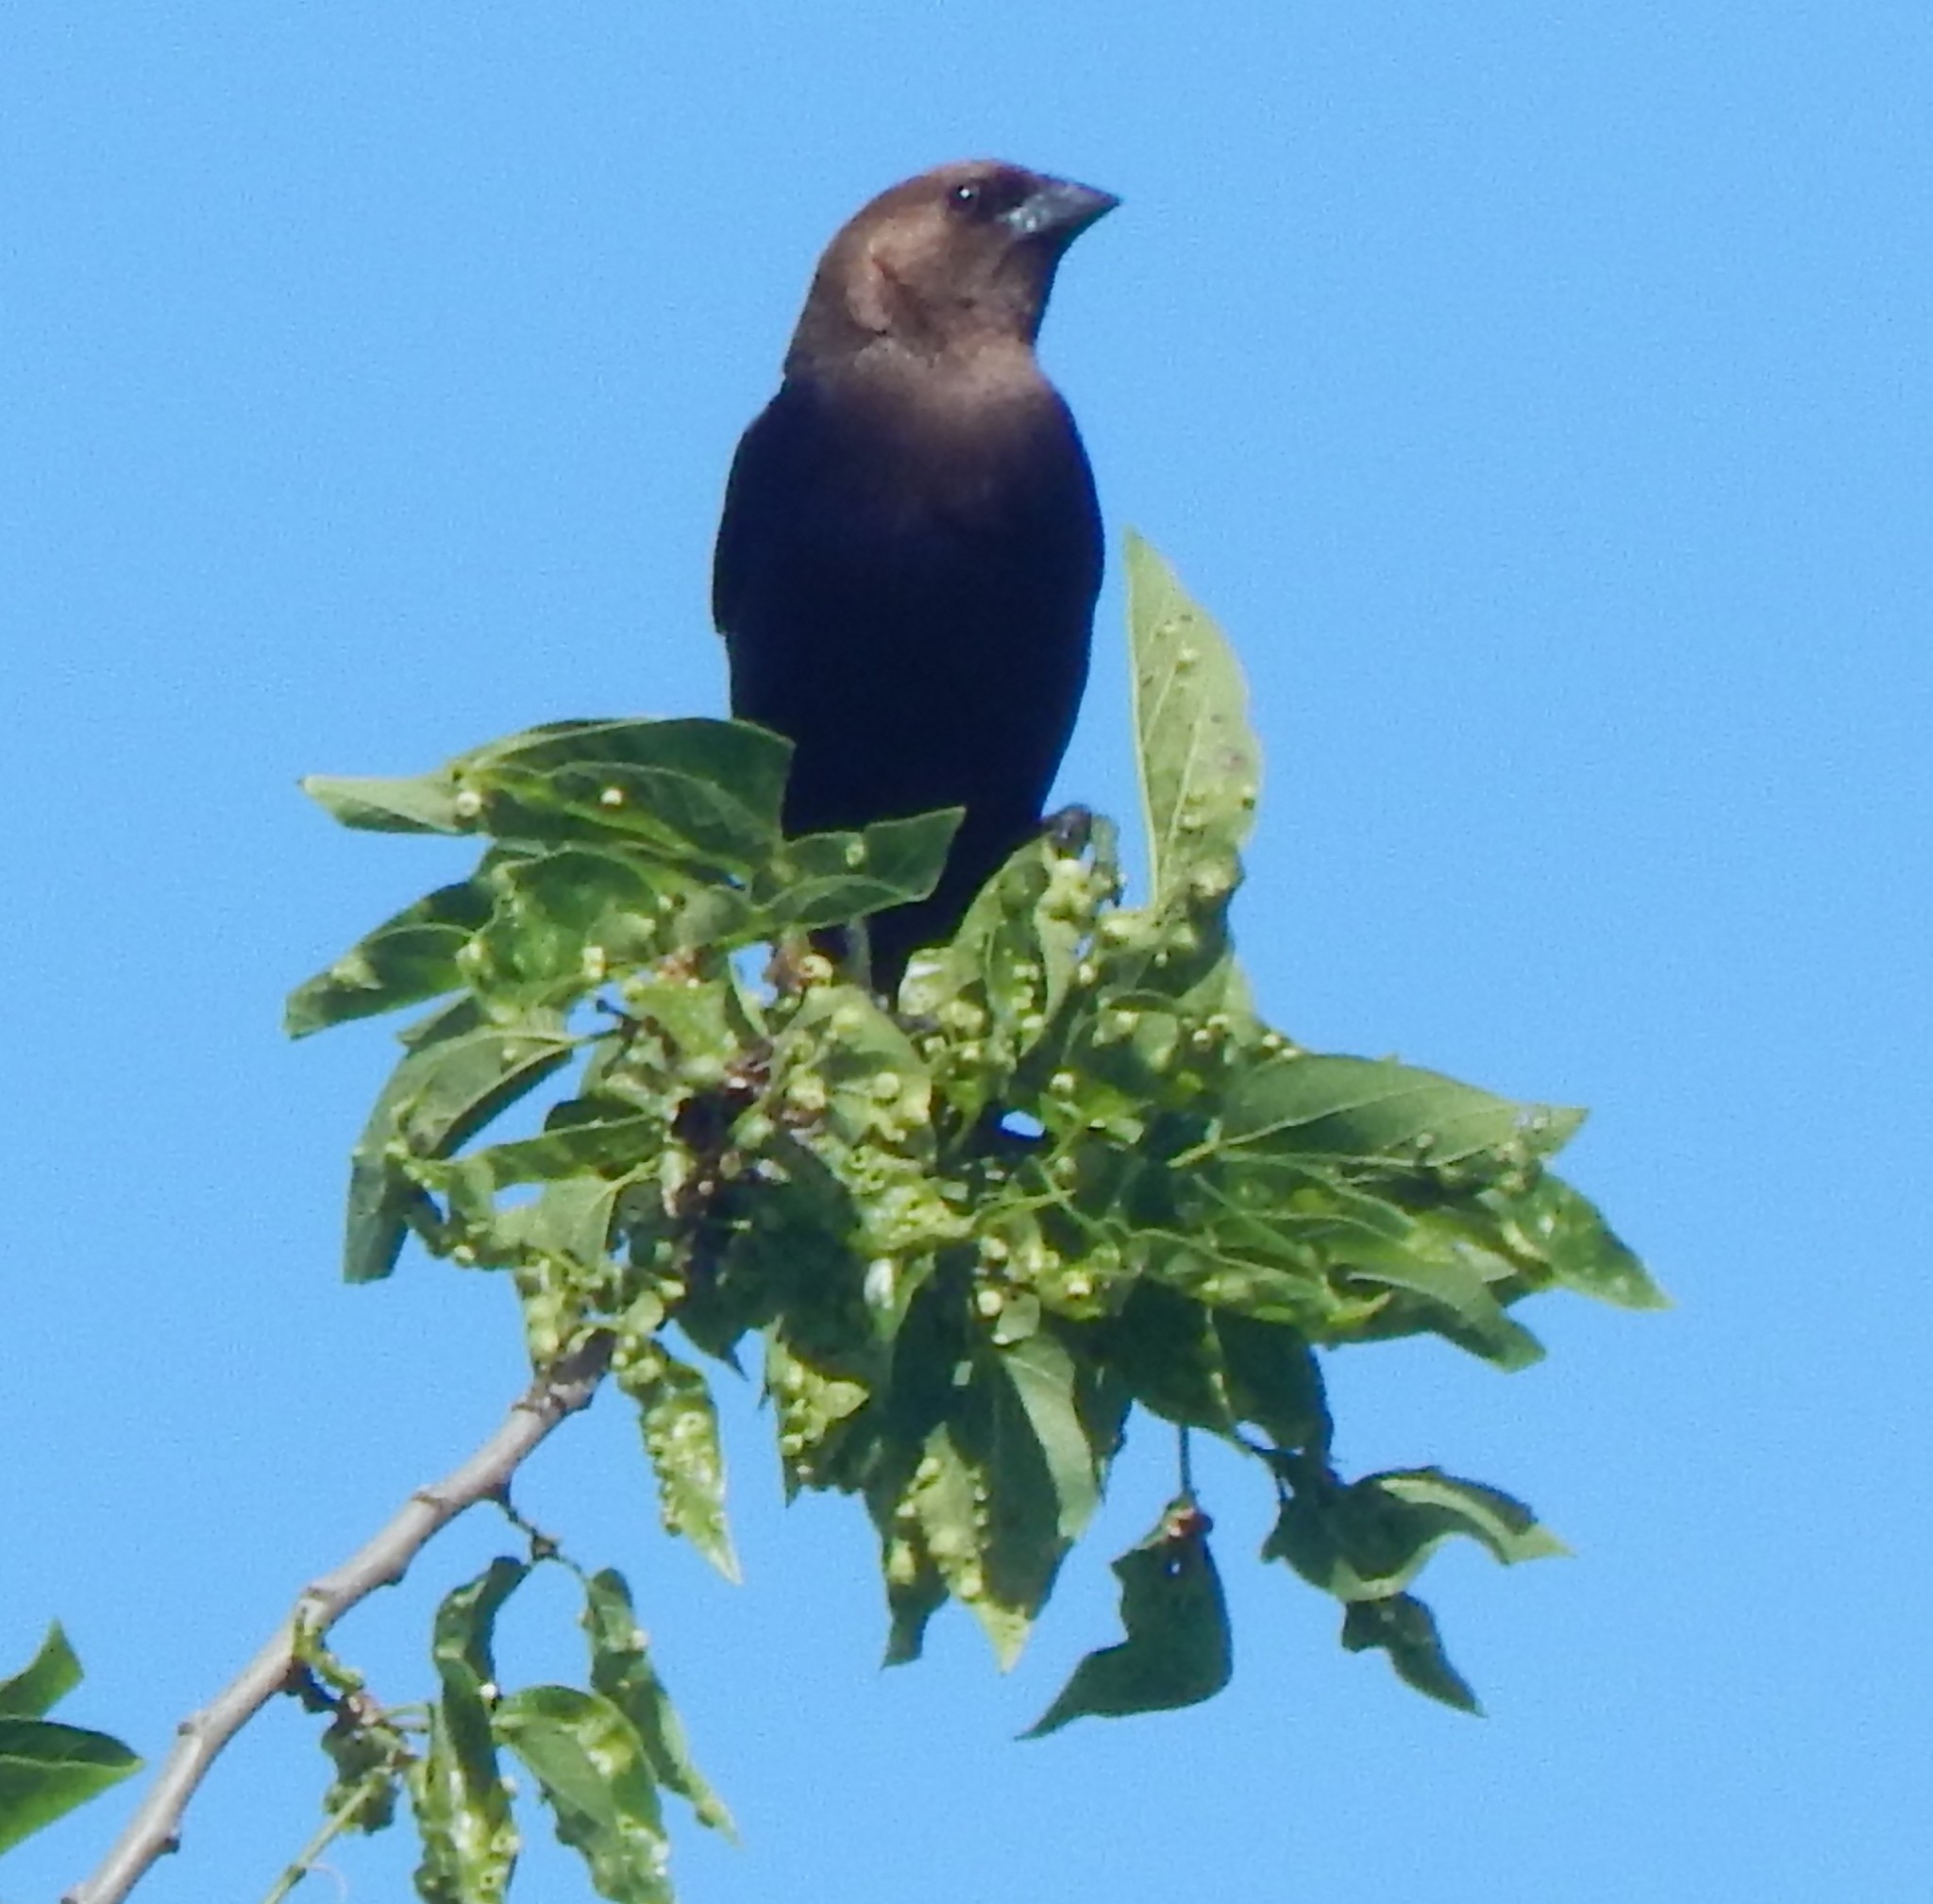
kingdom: Animalia
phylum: Chordata
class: Aves
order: Passeriformes
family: Icteridae
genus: Molothrus
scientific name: Molothrus ater
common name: Brown-headed cowbird
